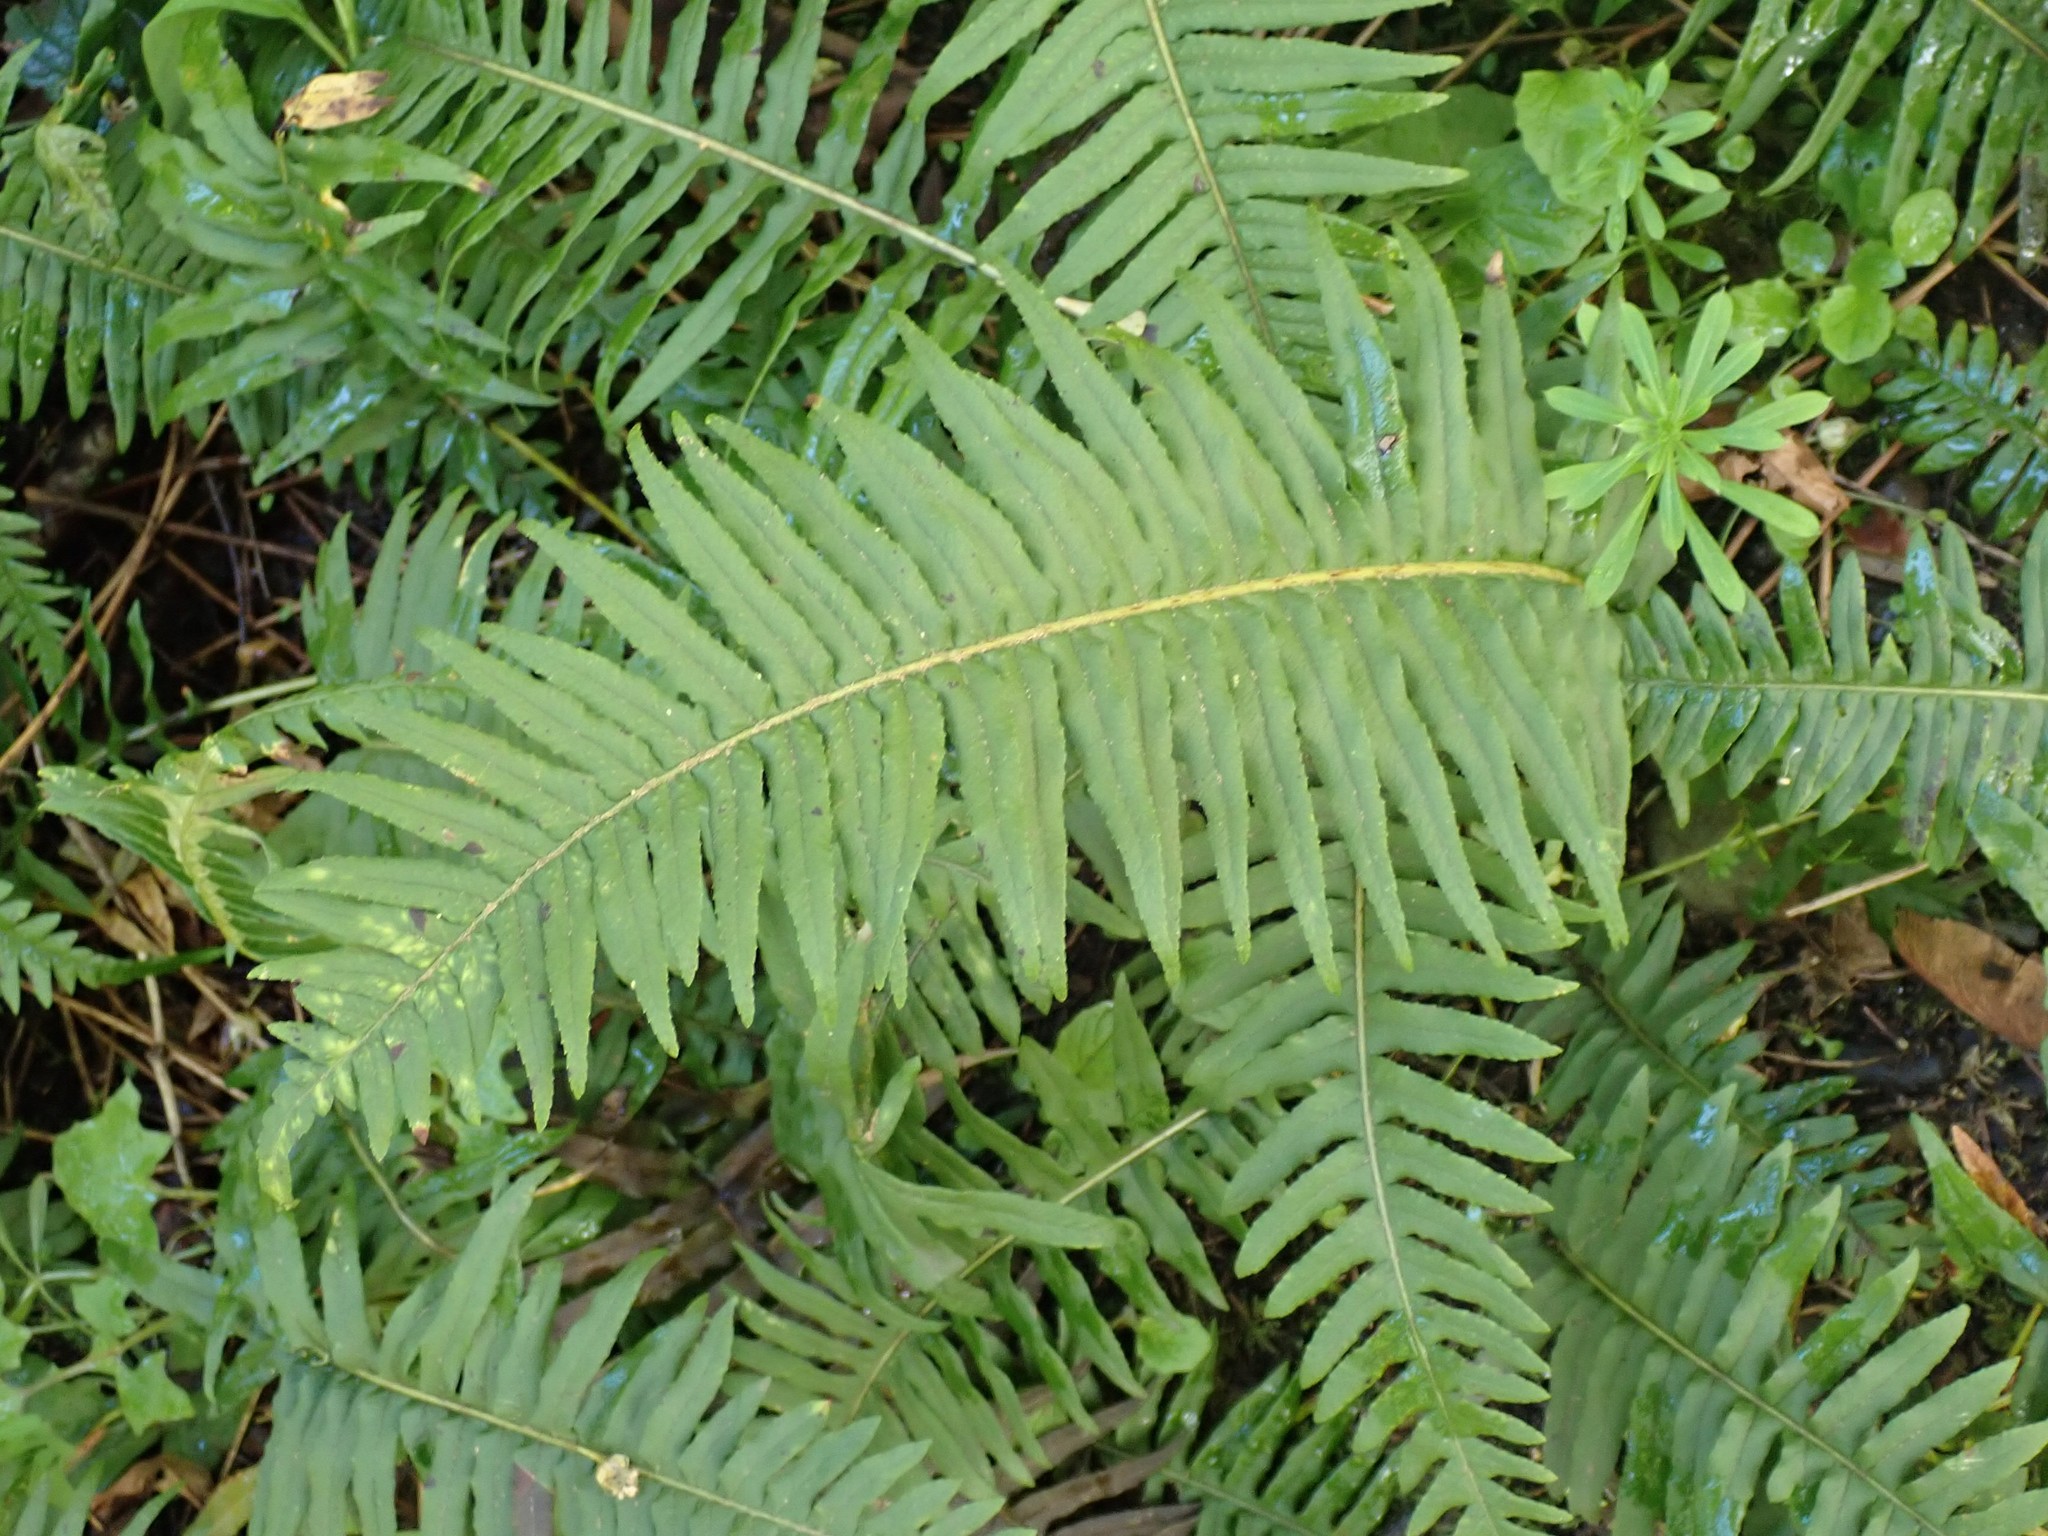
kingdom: Plantae
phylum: Tracheophyta
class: Polypodiopsida
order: Polypodiales
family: Polypodiaceae
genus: Polypodium
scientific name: Polypodium glycyrrhiza
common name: Licorice fern
